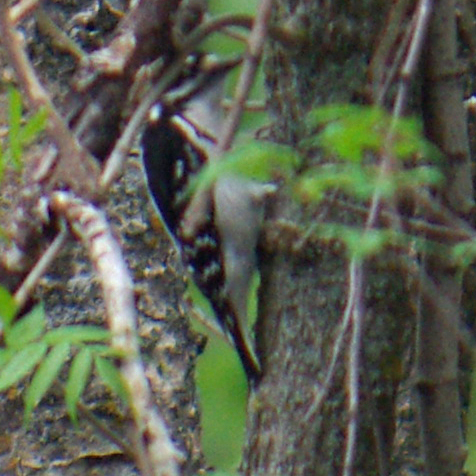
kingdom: Animalia
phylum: Chordata
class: Aves
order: Piciformes
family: Picidae
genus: Leuconotopicus
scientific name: Leuconotopicus villosus
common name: Hairy woodpecker
